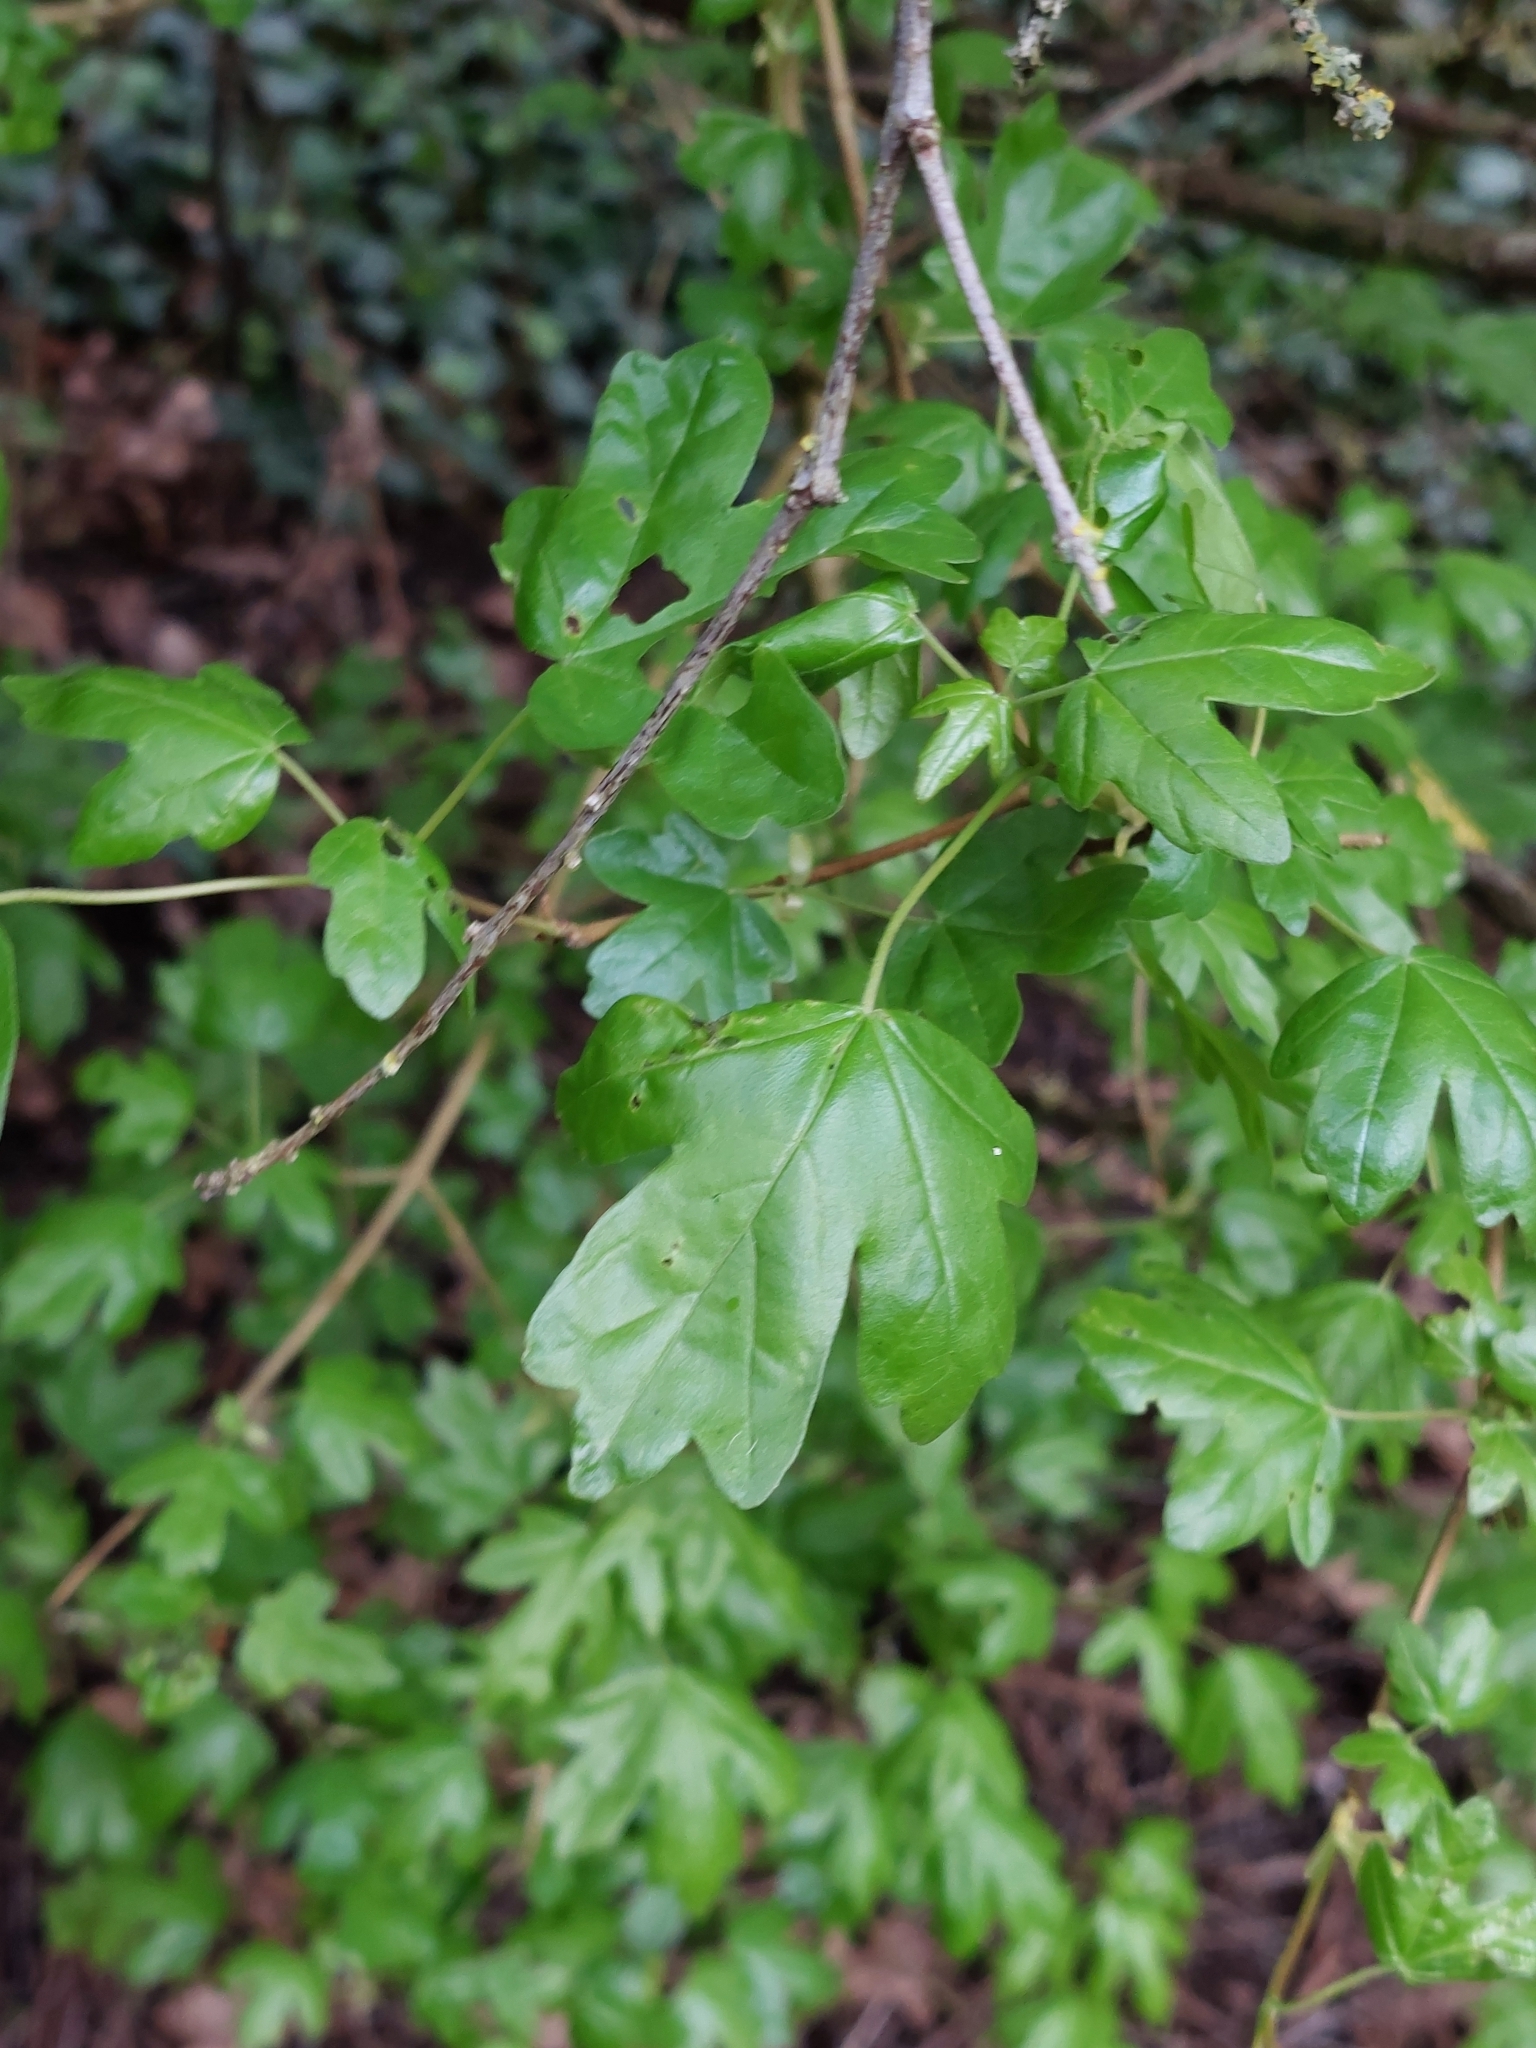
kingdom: Plantae
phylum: Tracheophyta
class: Magnoliopsida
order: Sapindales
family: Sapindaceae
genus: Acer
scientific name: Acer campestre
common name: Field maple
